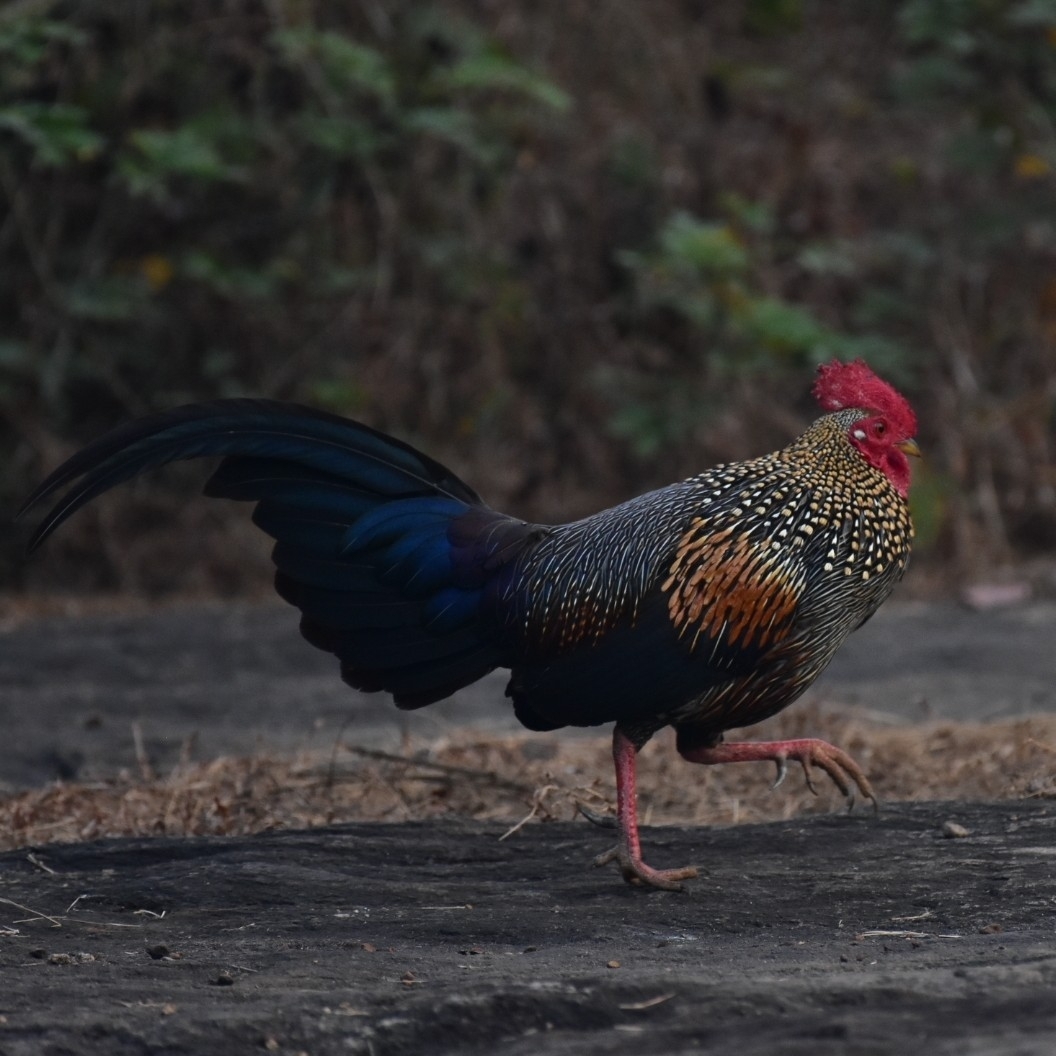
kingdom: Animalia
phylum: Chordata
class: Aves
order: Galliformes
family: Phasianidae
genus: Gallus
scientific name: Gallus sonneratii
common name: Grey junglefowl
